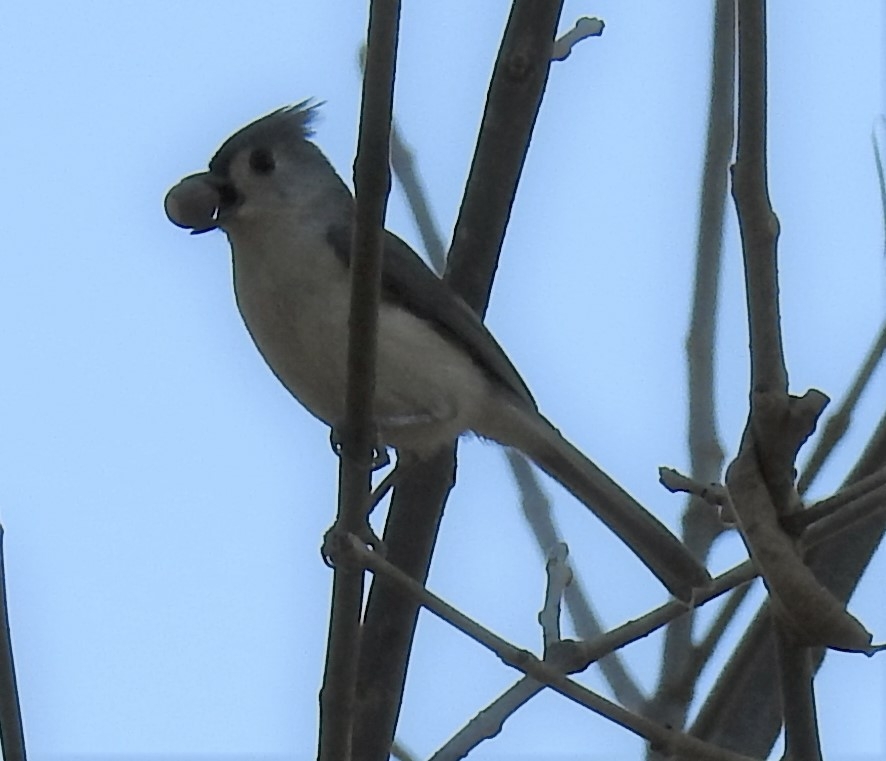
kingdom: Animalia
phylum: Chordata
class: Aves
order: Passeriformes
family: Paridae
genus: Baeolophus
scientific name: Baeolophus bicolor
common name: Tufted titmouse
